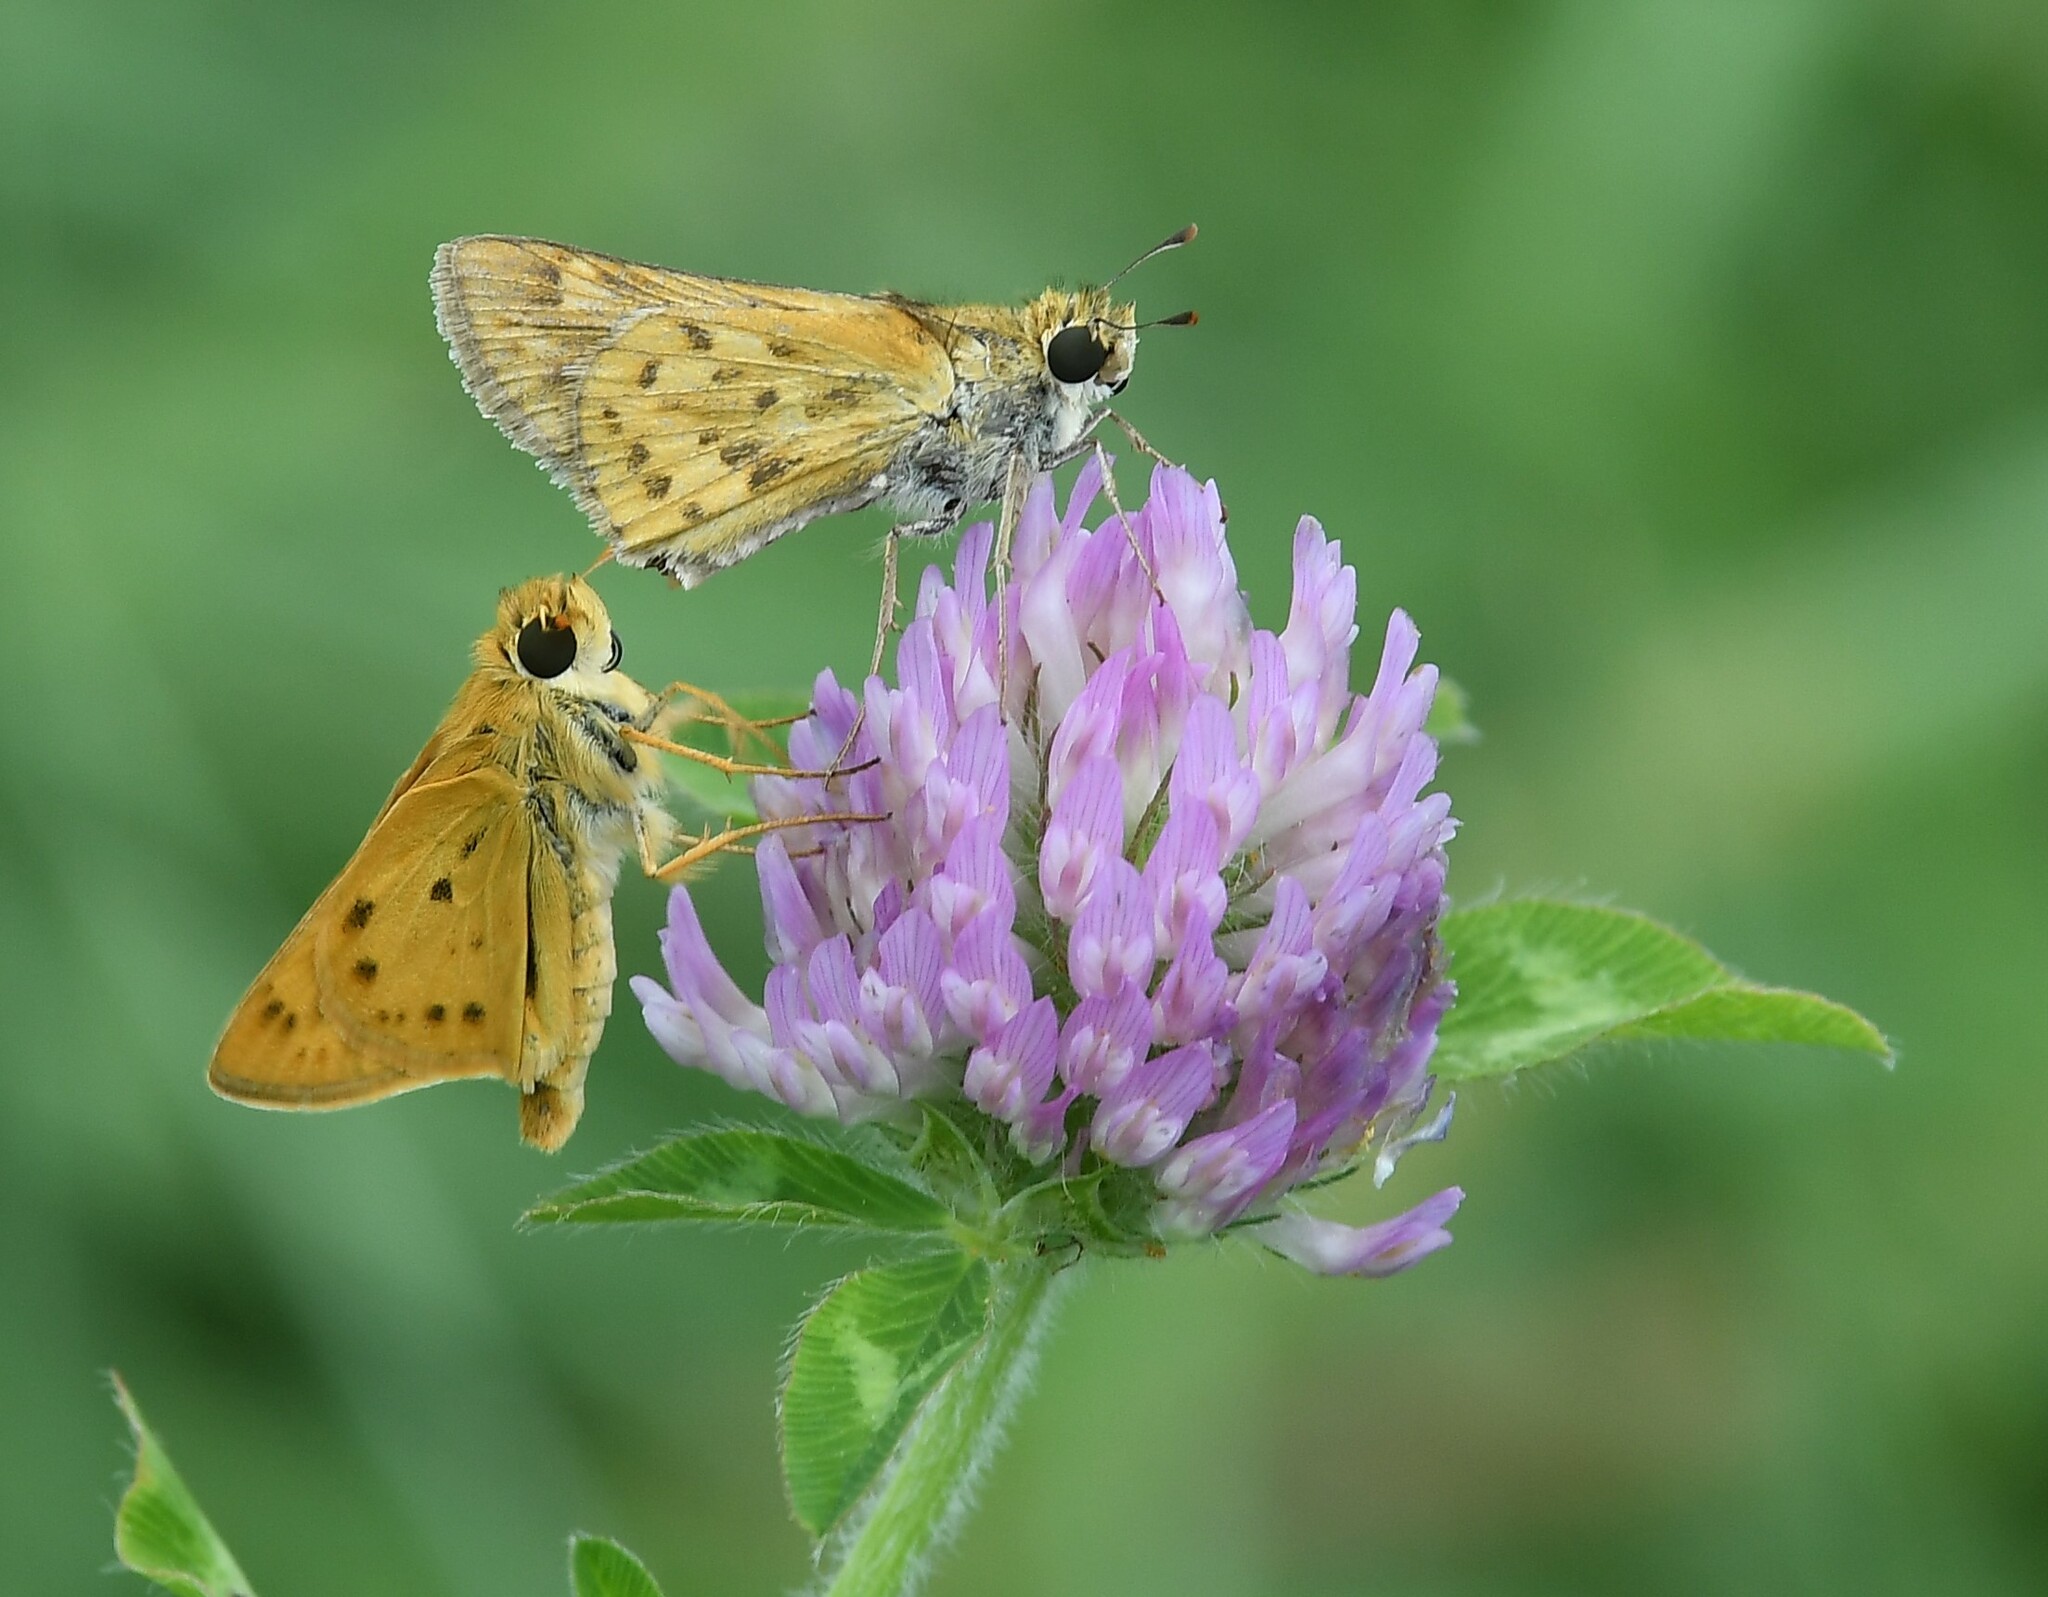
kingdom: Animalia
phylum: Arthropoda
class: Insecta
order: Lepidoptera
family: Hesperiidae
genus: Hylephila
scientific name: Hylephila phyleus
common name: Fiery skipper
